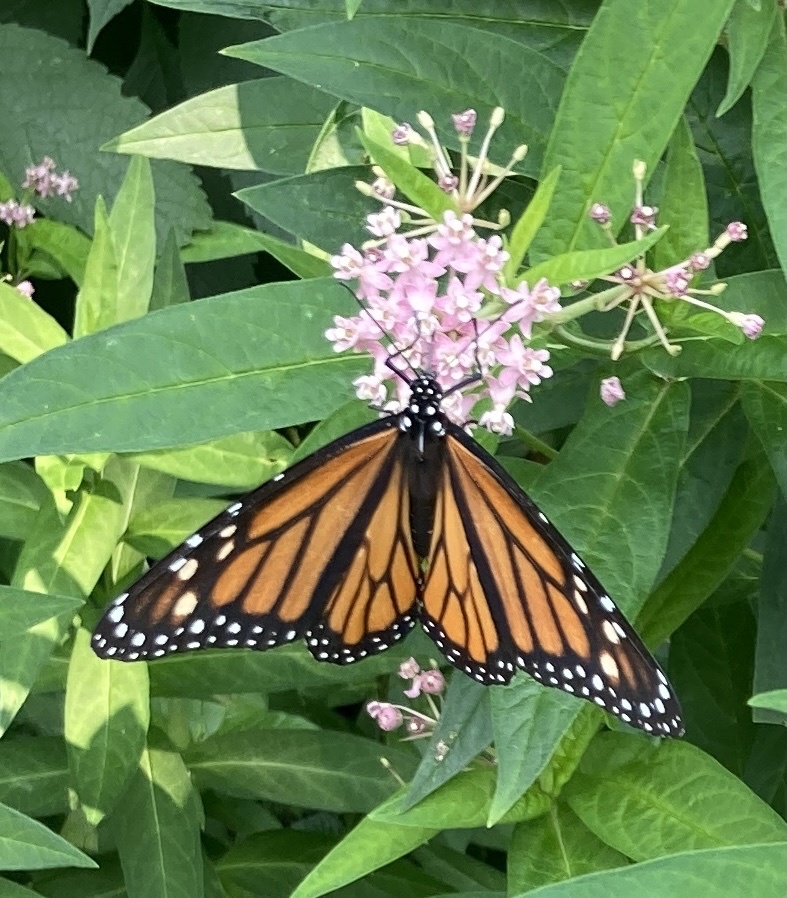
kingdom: Animalia
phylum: Arthropoda
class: Insecta
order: Lepidoptera
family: Nymphalidae
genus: Danaus
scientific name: Danaus plexippus
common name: Monarch
